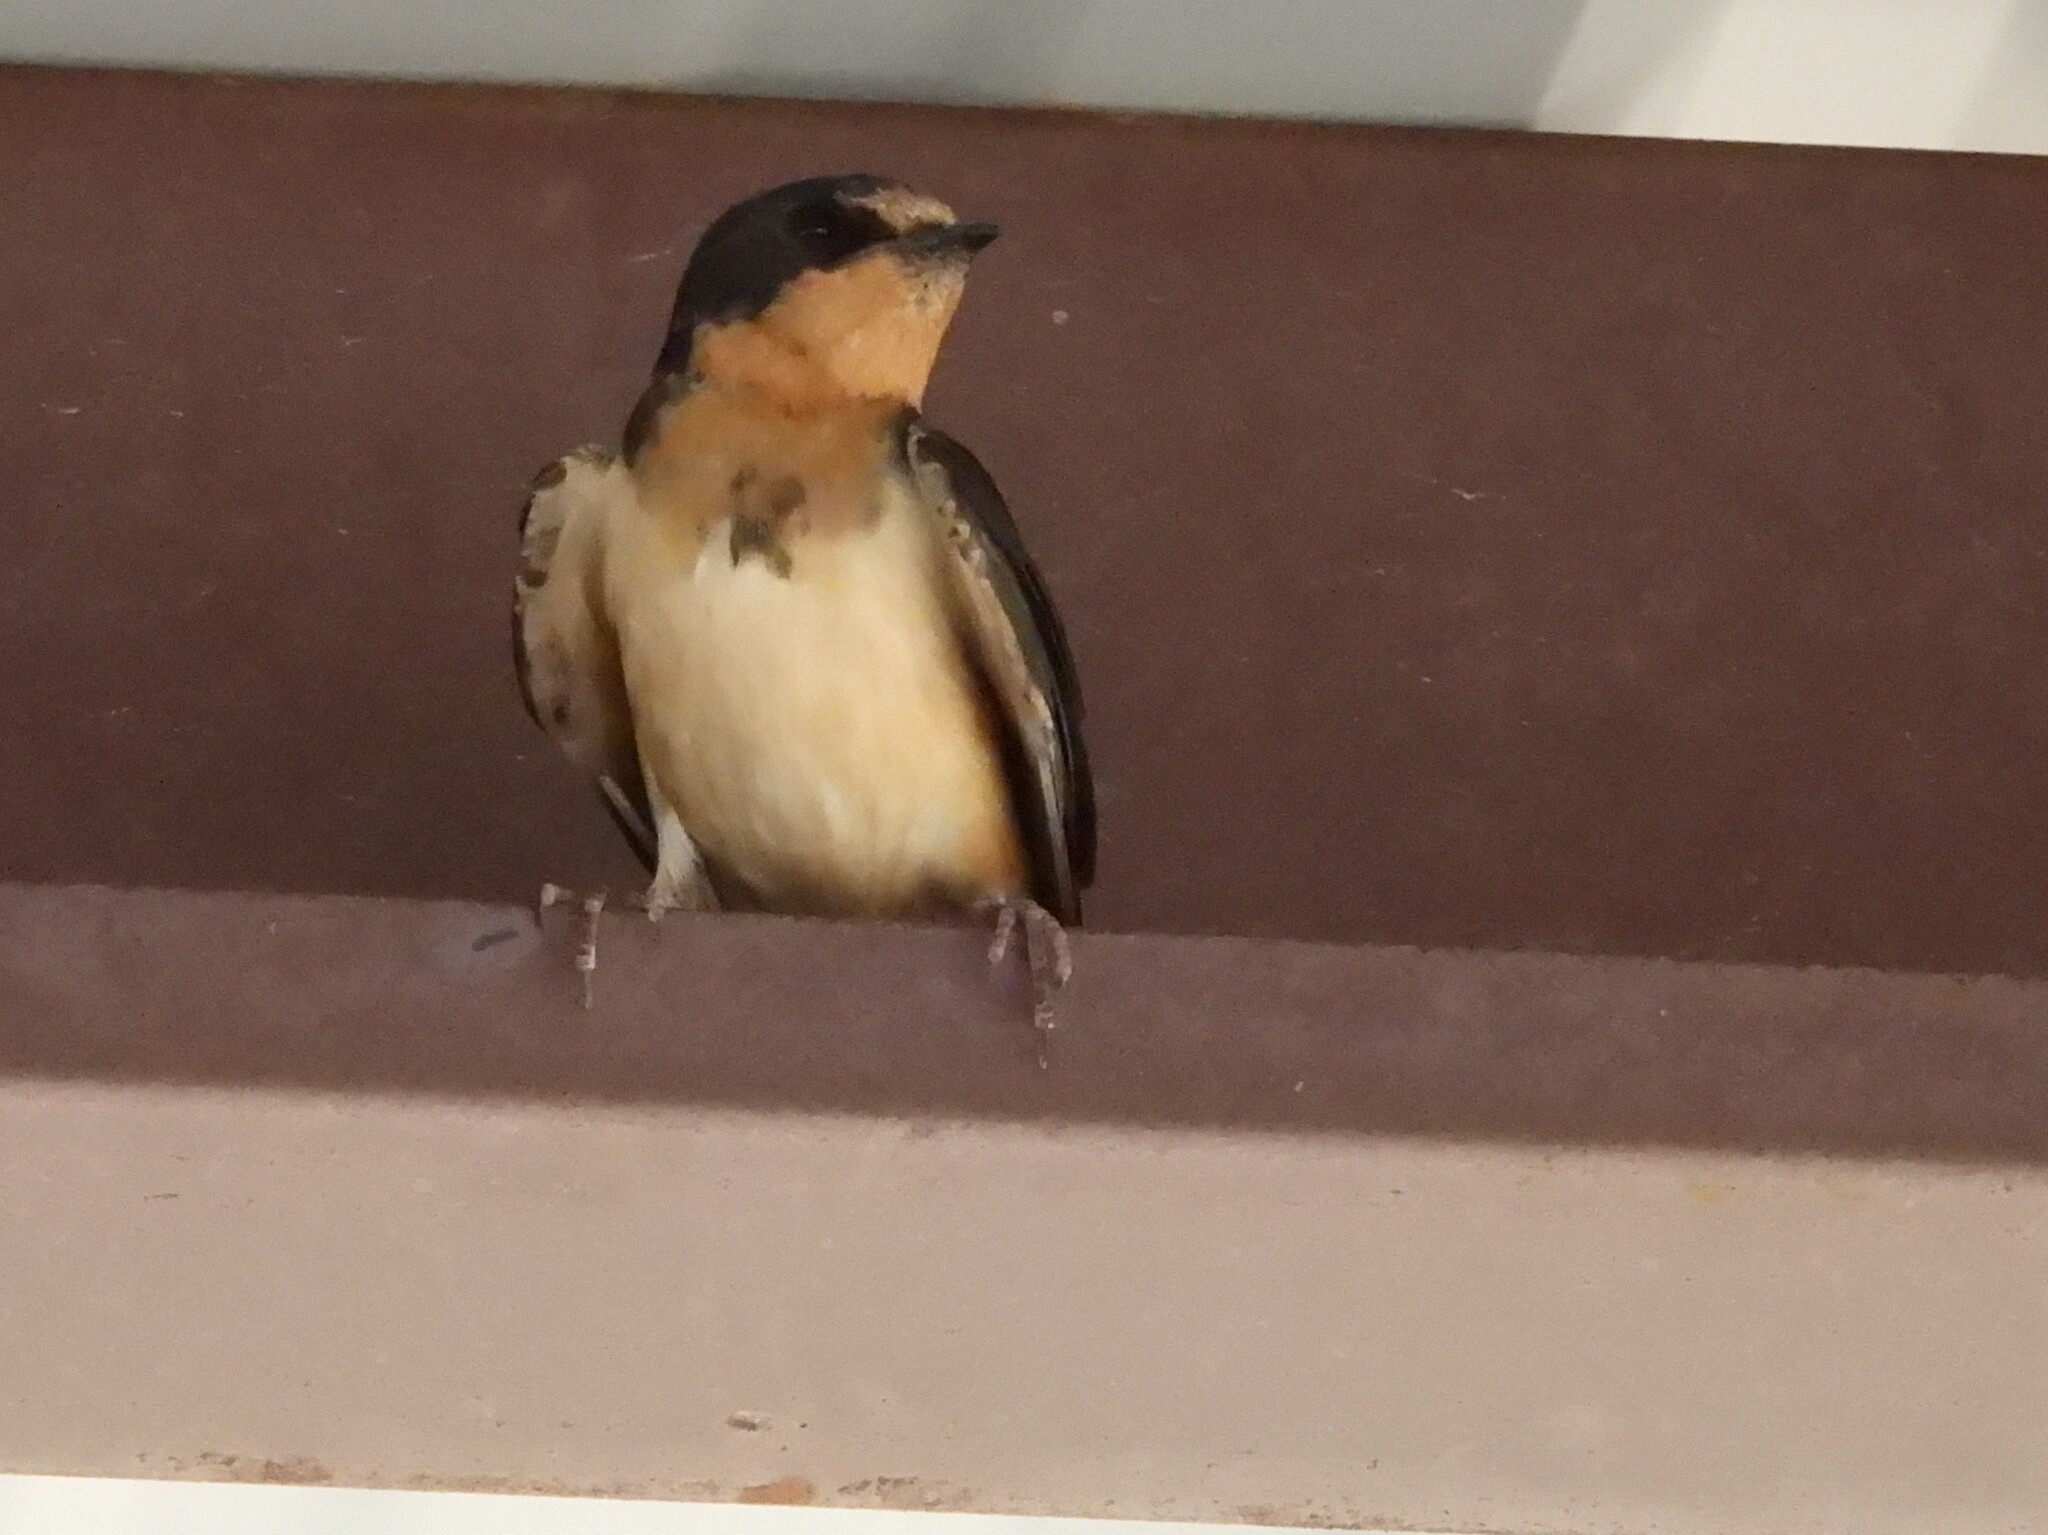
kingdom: Animalia
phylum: Chordata
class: Aves
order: Passeriformes
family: Hirundinidae
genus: Hirundo
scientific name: Hirundo rustica
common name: Barn swallow
